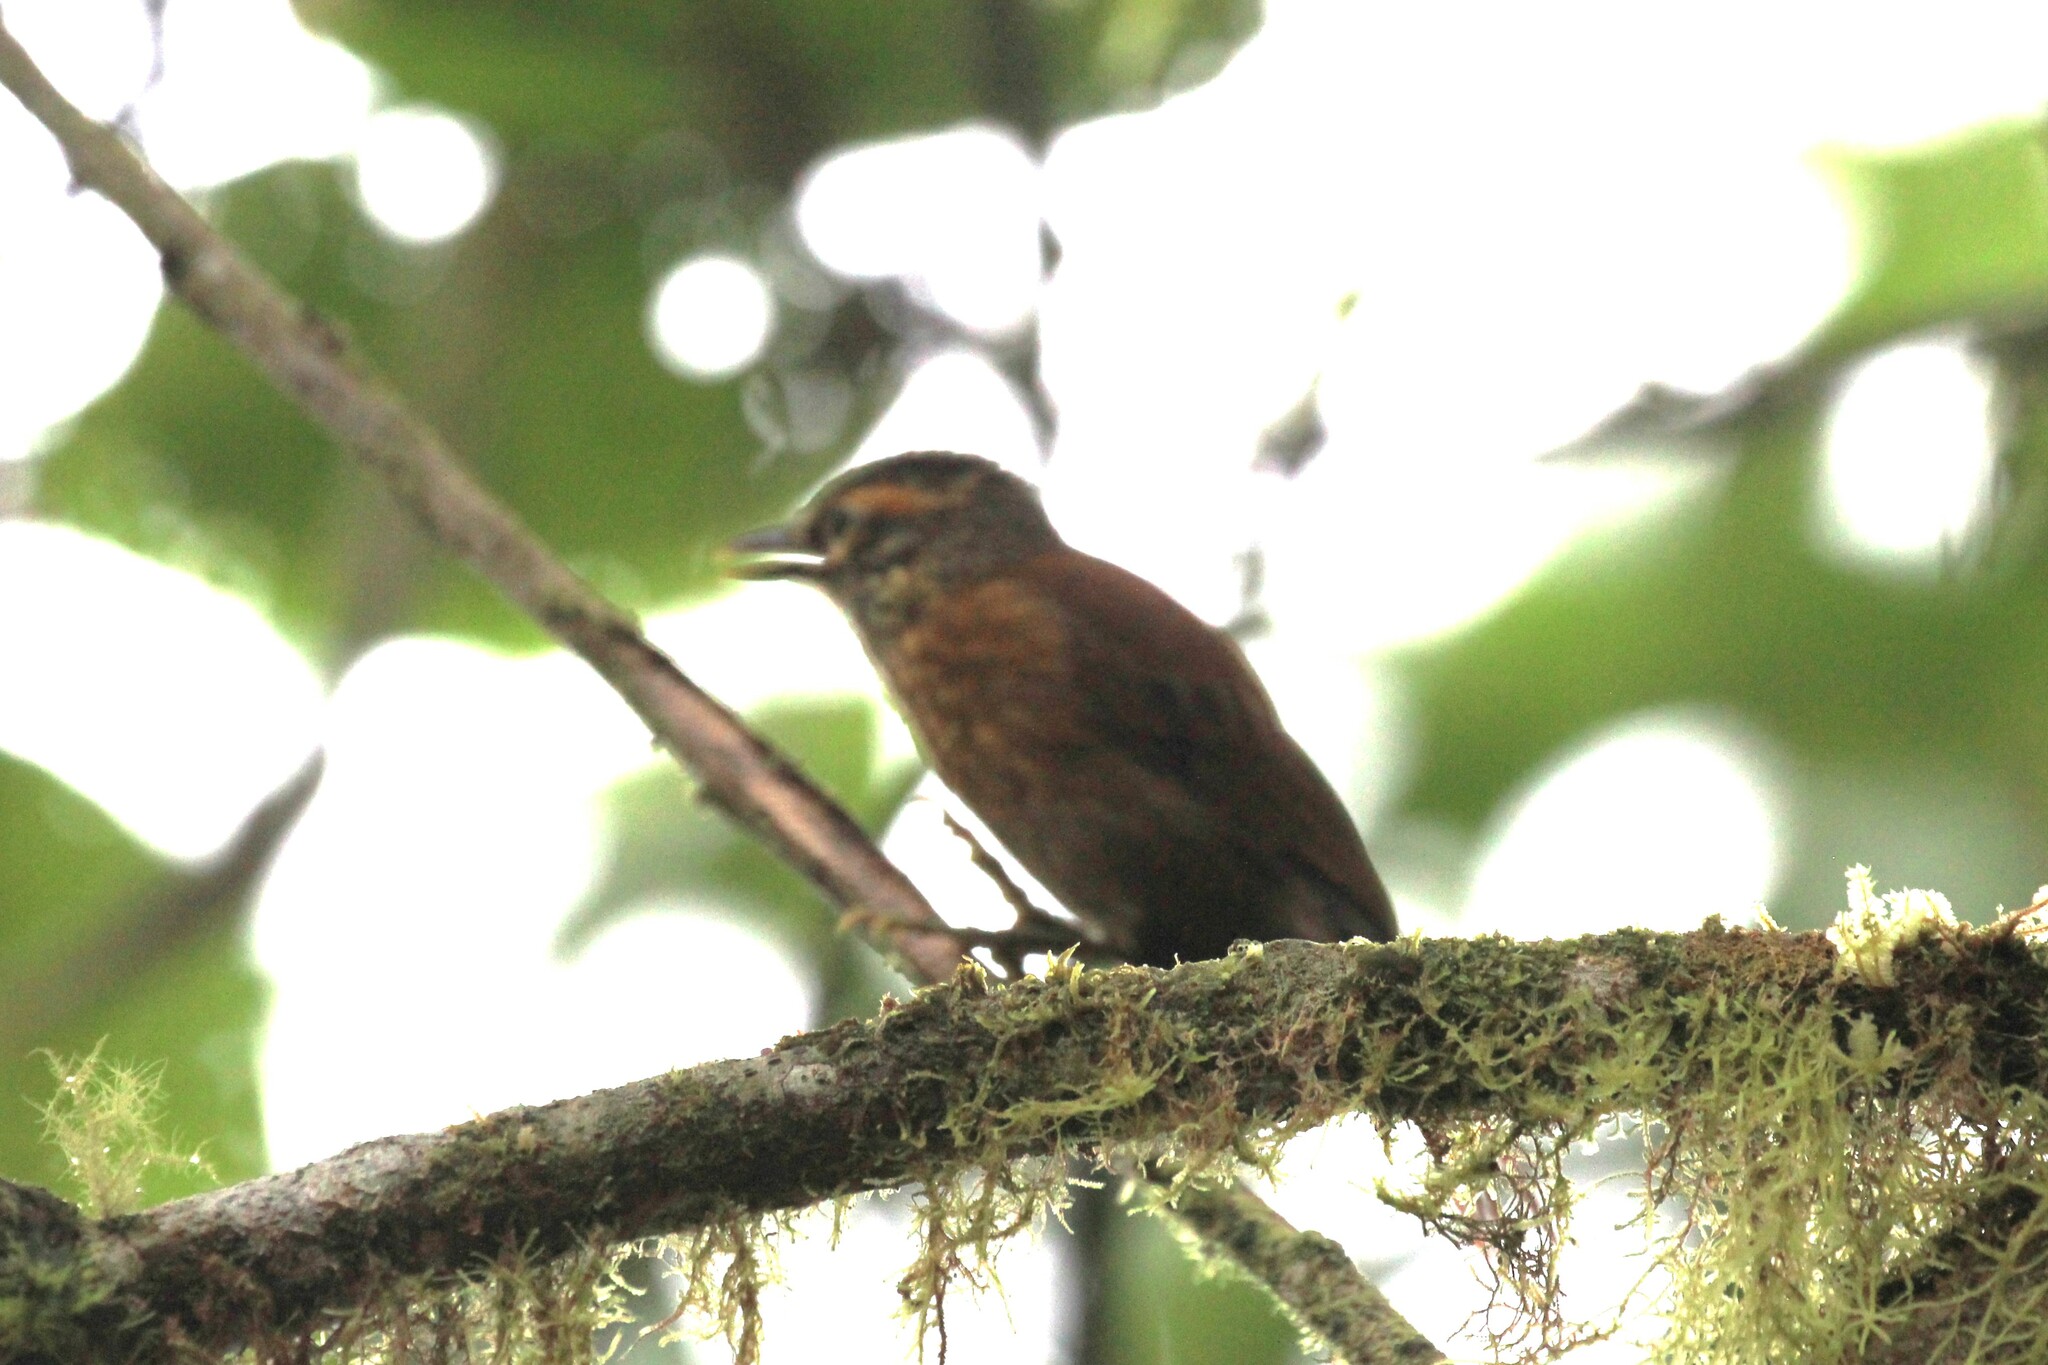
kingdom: Animalia
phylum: Chordata
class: Aves
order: Passeriformes
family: Furnariidae
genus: Anabacerthia
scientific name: Anabacerthia variegaticeps
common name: Scaly-throated foliage-gleaner
